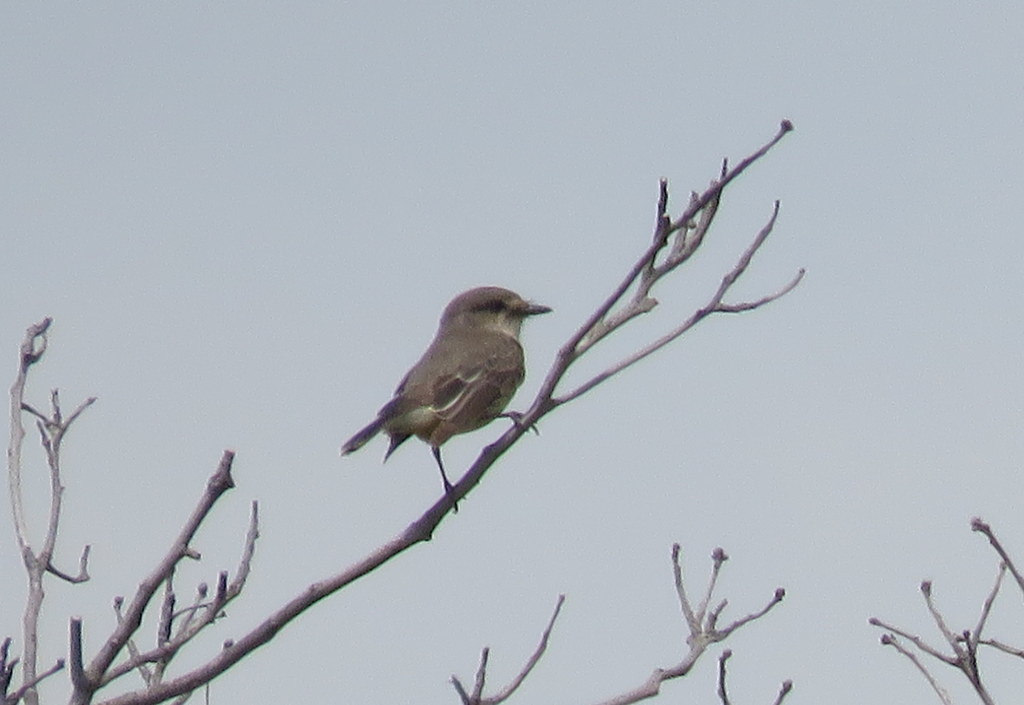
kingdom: Animalia
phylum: Chordata
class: Aves
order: Passeriformes
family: Tyrannidae
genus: Pyrocephalus
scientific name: Pyrocephalus rubinus
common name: Vermilion flycatcher
